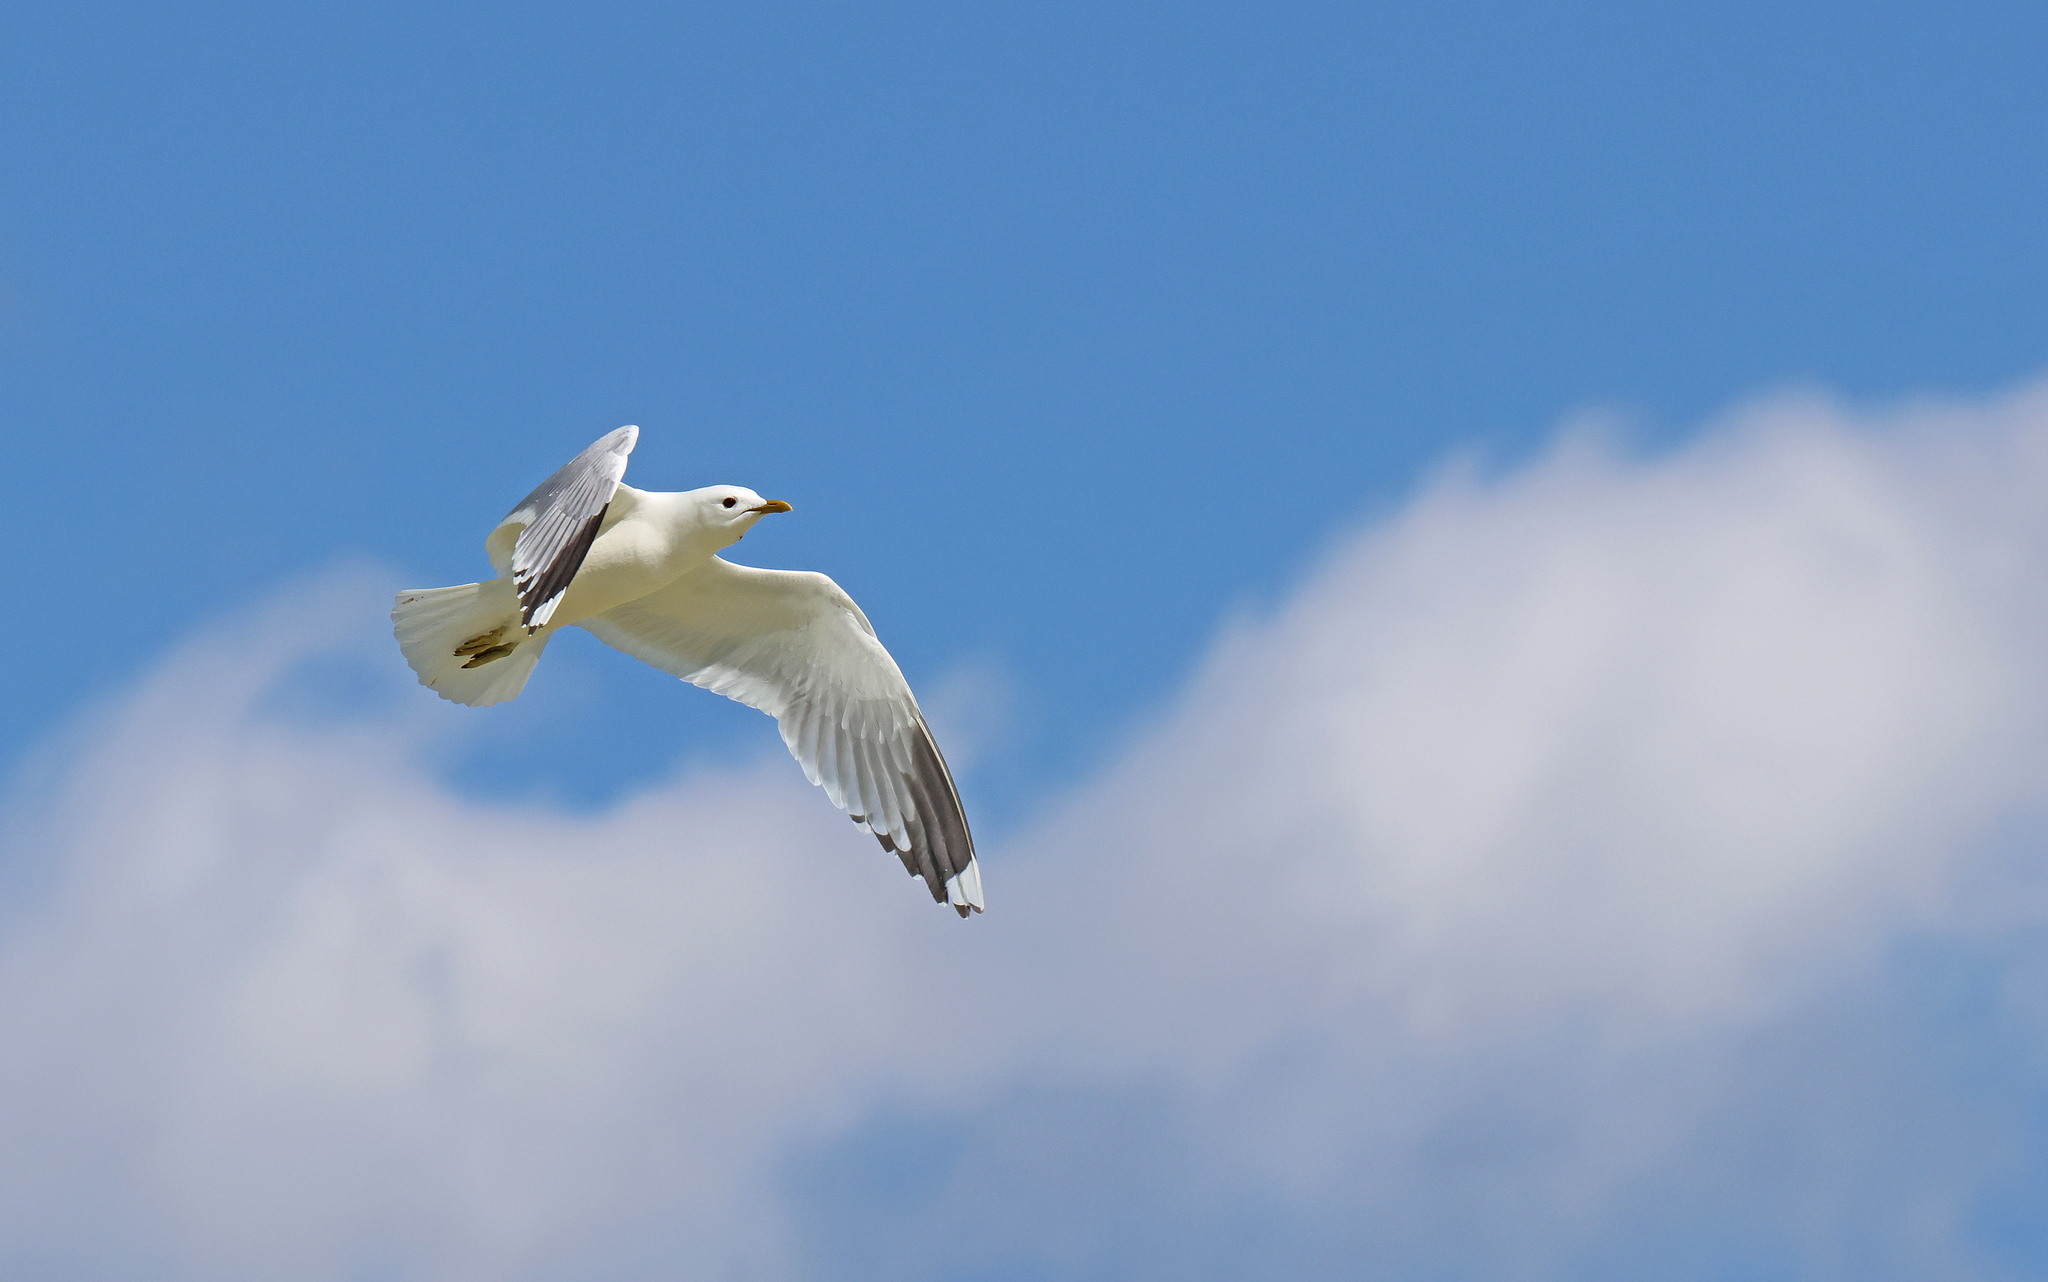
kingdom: Animalia
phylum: Chordata
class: Aves
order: Charadriiformes
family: Laridae
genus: Larus
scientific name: Larus canus
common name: Mew gull
